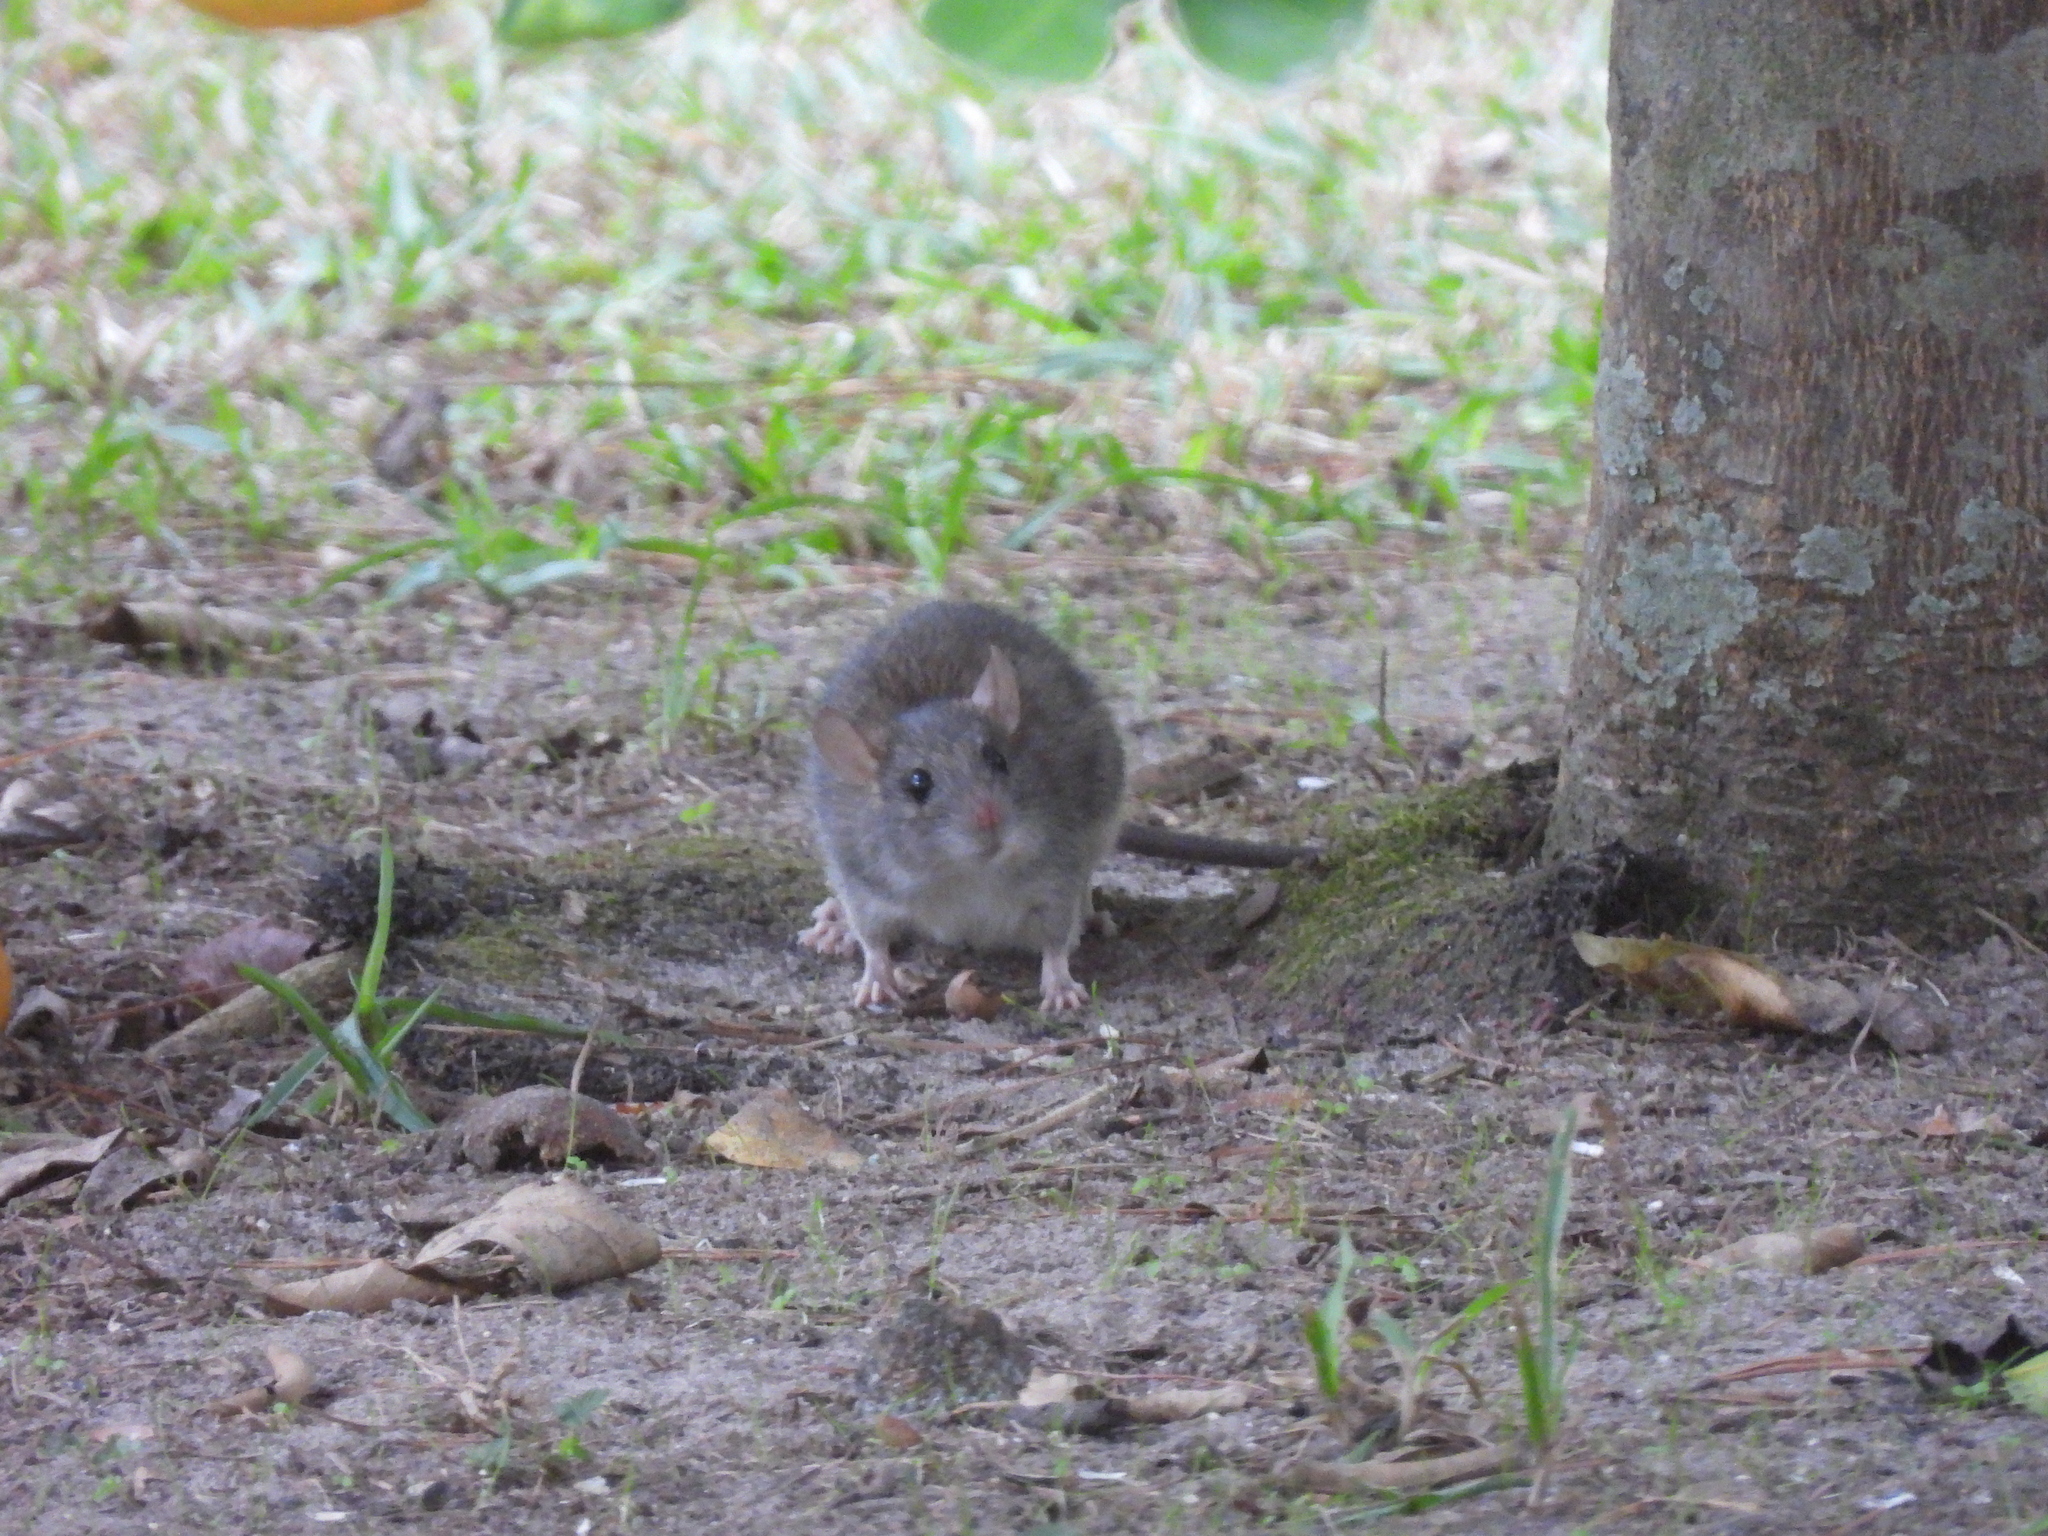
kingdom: Animalia
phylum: Chordata
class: Mammalia
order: Rodentia
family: Muridae
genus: Rattus
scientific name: Rattus rattus
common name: Black rat
